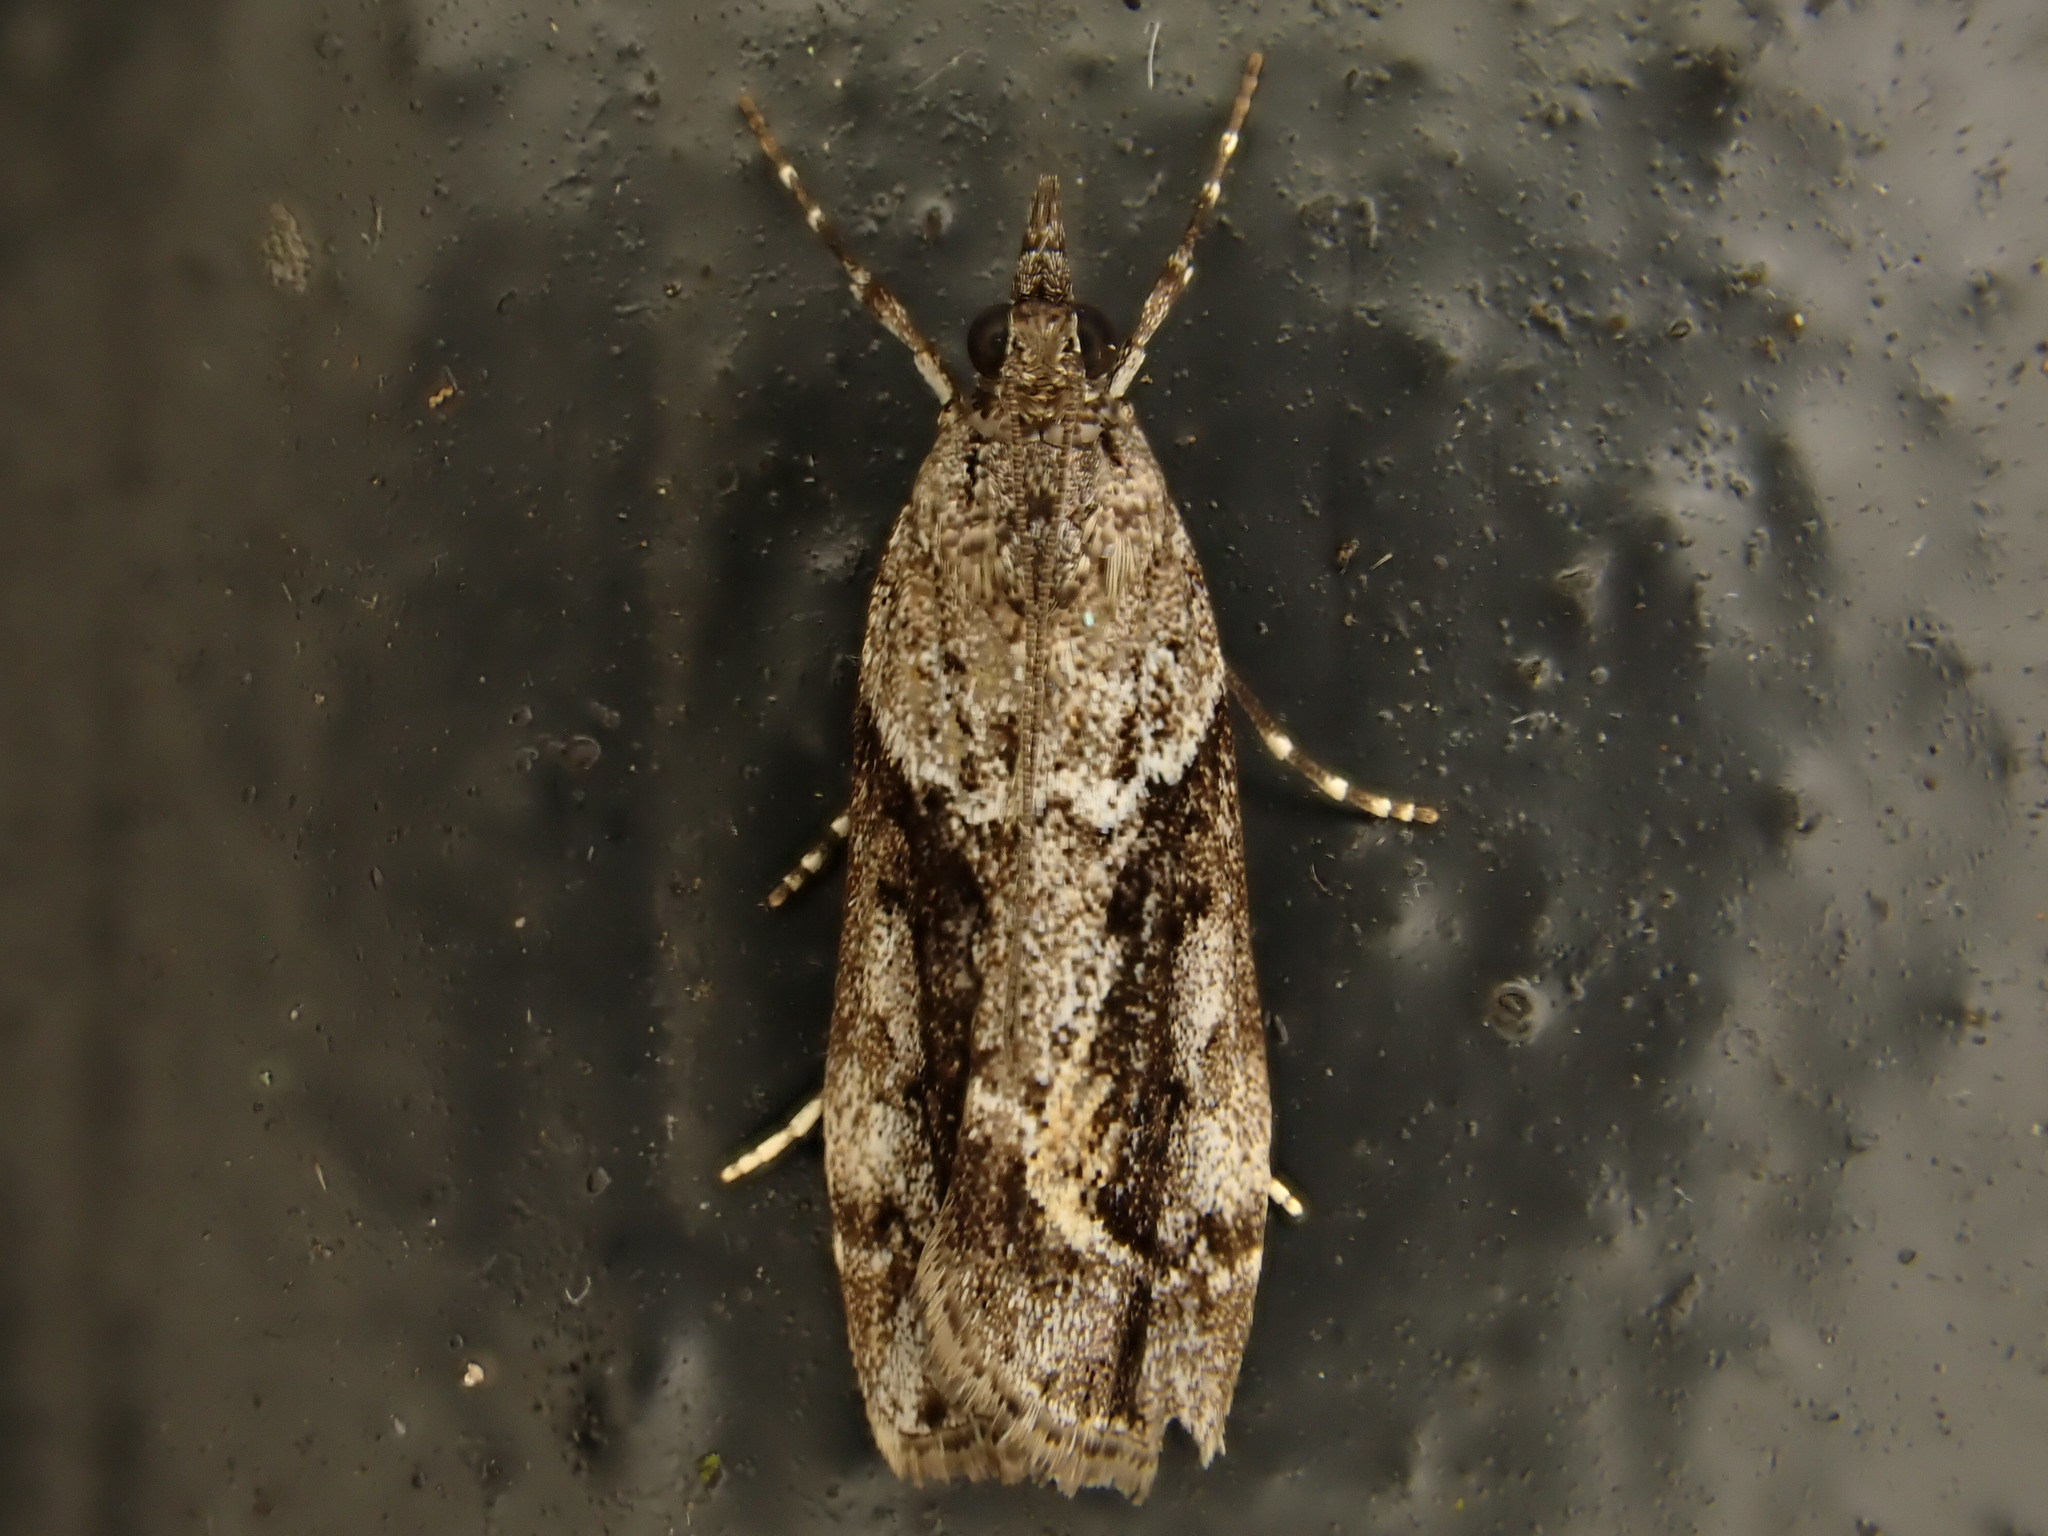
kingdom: Animalia
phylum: Arthropoda
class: Insecta
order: Lepidoptera
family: Crambidae
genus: Eudonia
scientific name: Eudonia submarginalis
